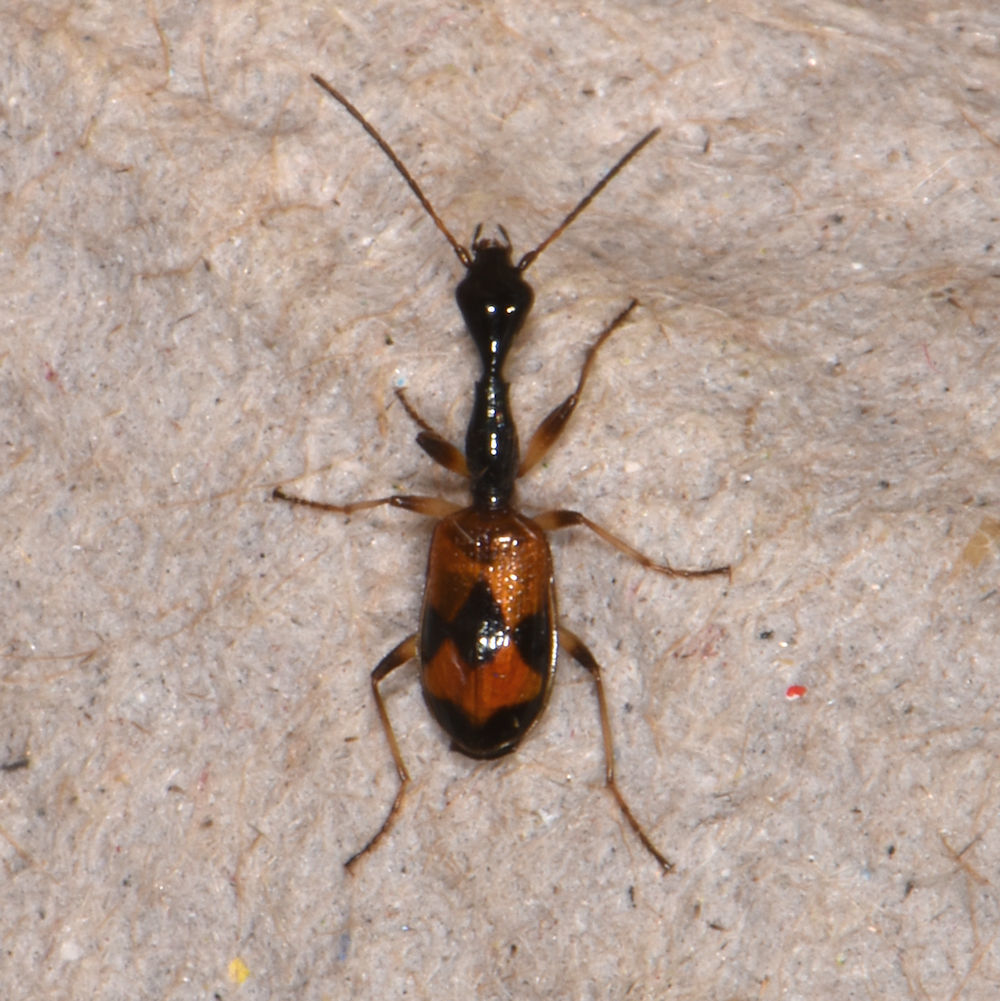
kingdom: Animalia
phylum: Arthropoda
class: Insecta
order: Coleoptera
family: Carabidae
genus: Colliuris
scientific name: Colliuris pensylvanica
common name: Long-necked ground beetle
